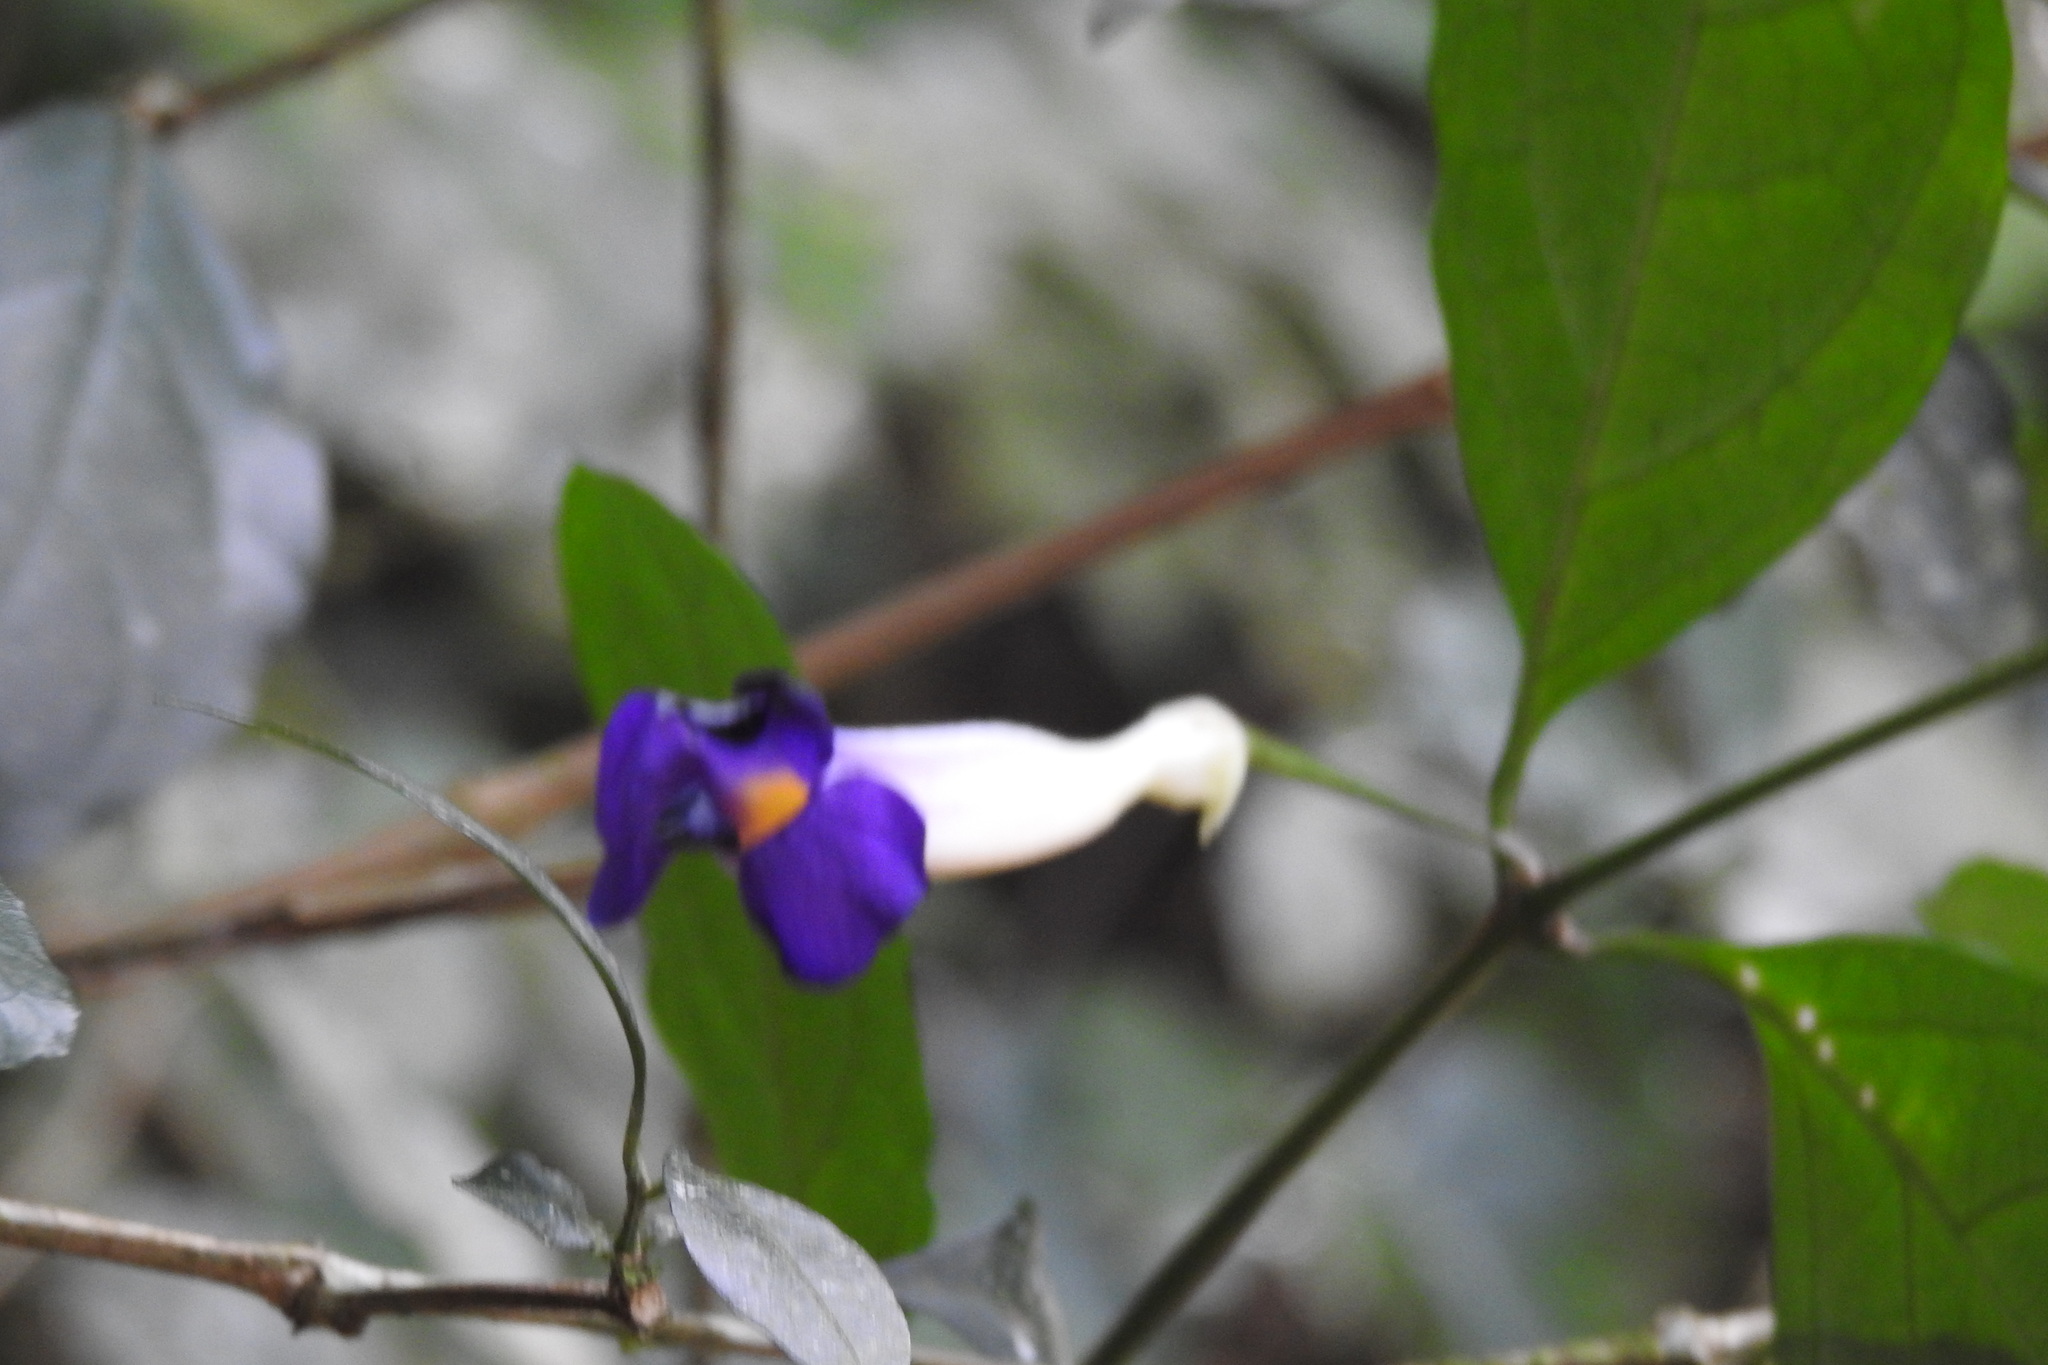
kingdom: Plantae
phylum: Tracheophyta
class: Magnoliopsida
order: Lamiales
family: Acanthaceae
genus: Thunbergia
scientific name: Thunbergia erecta
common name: Bush clockvine
